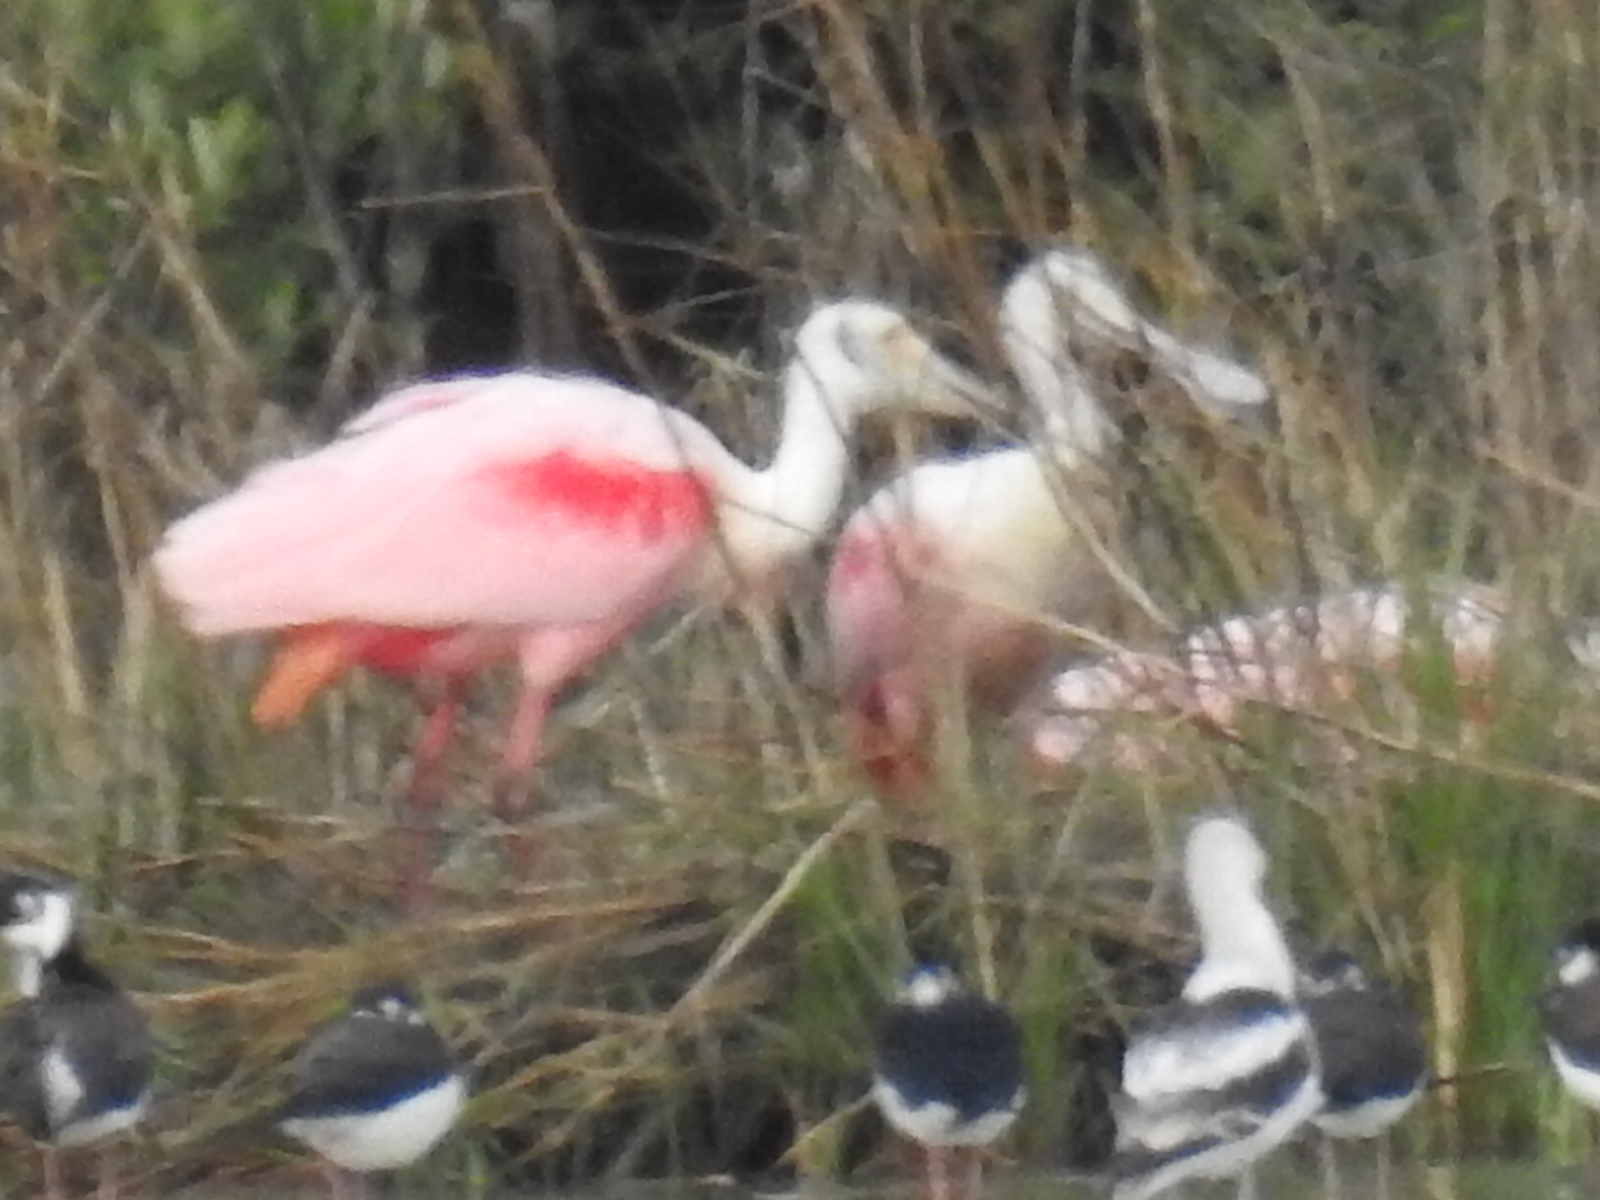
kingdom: Animalia
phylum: Chordata
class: Aves
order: Pelecaniformes
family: Threskiornithidae
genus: Platalea
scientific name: Platalea ajaja
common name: Roseate spoonbill
